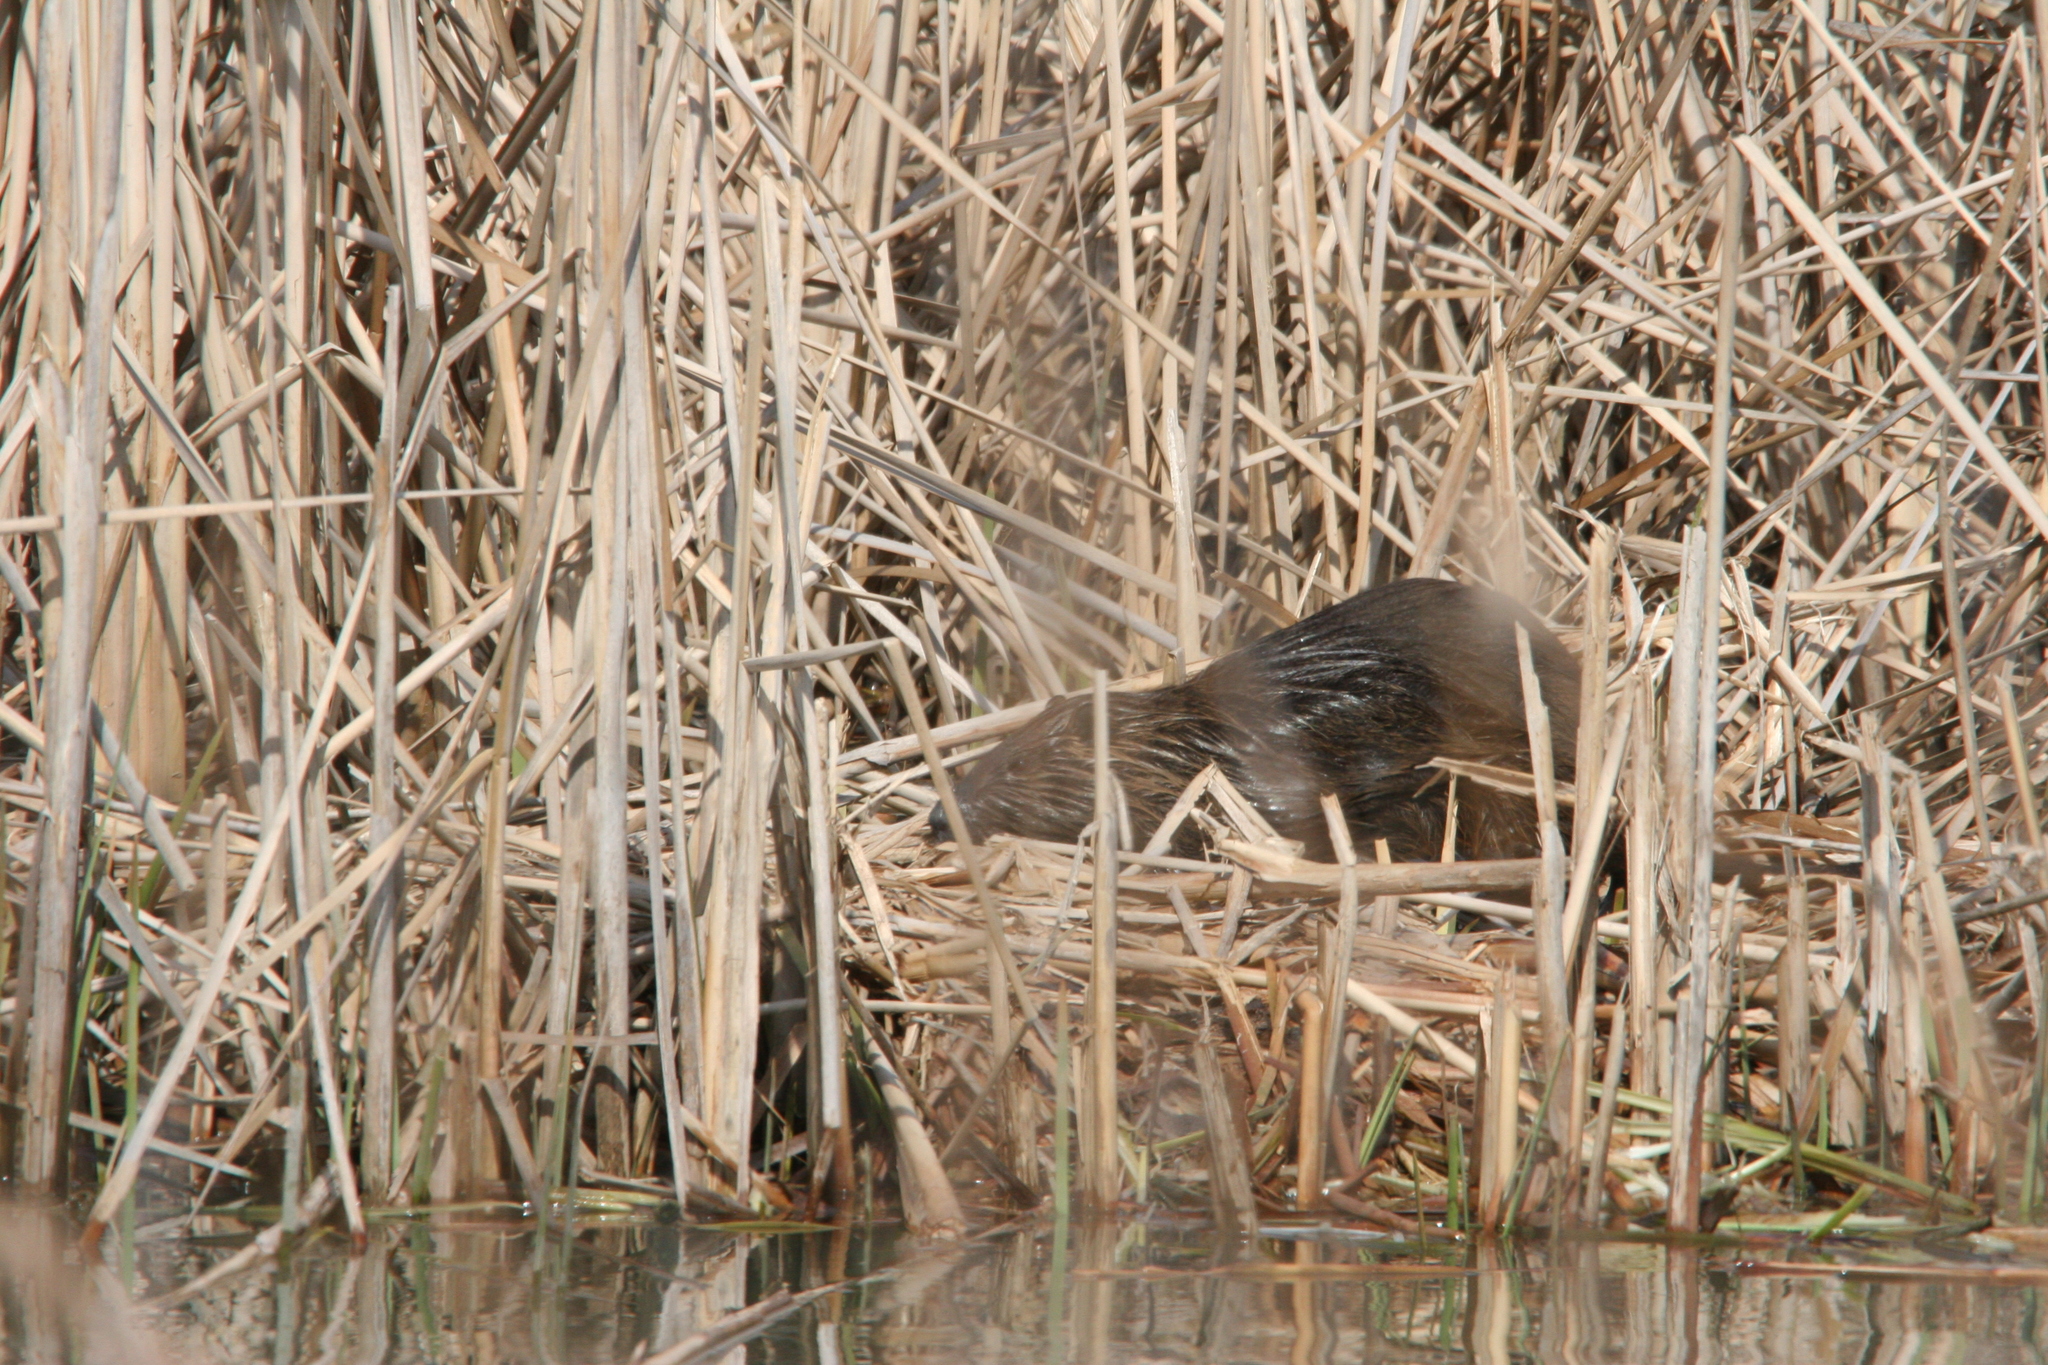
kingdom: Animalia
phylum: Chordata
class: Mammalia
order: Rodentia
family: Myocastoridae
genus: Myocastor
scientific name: Myocastor coypus
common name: Coypu
